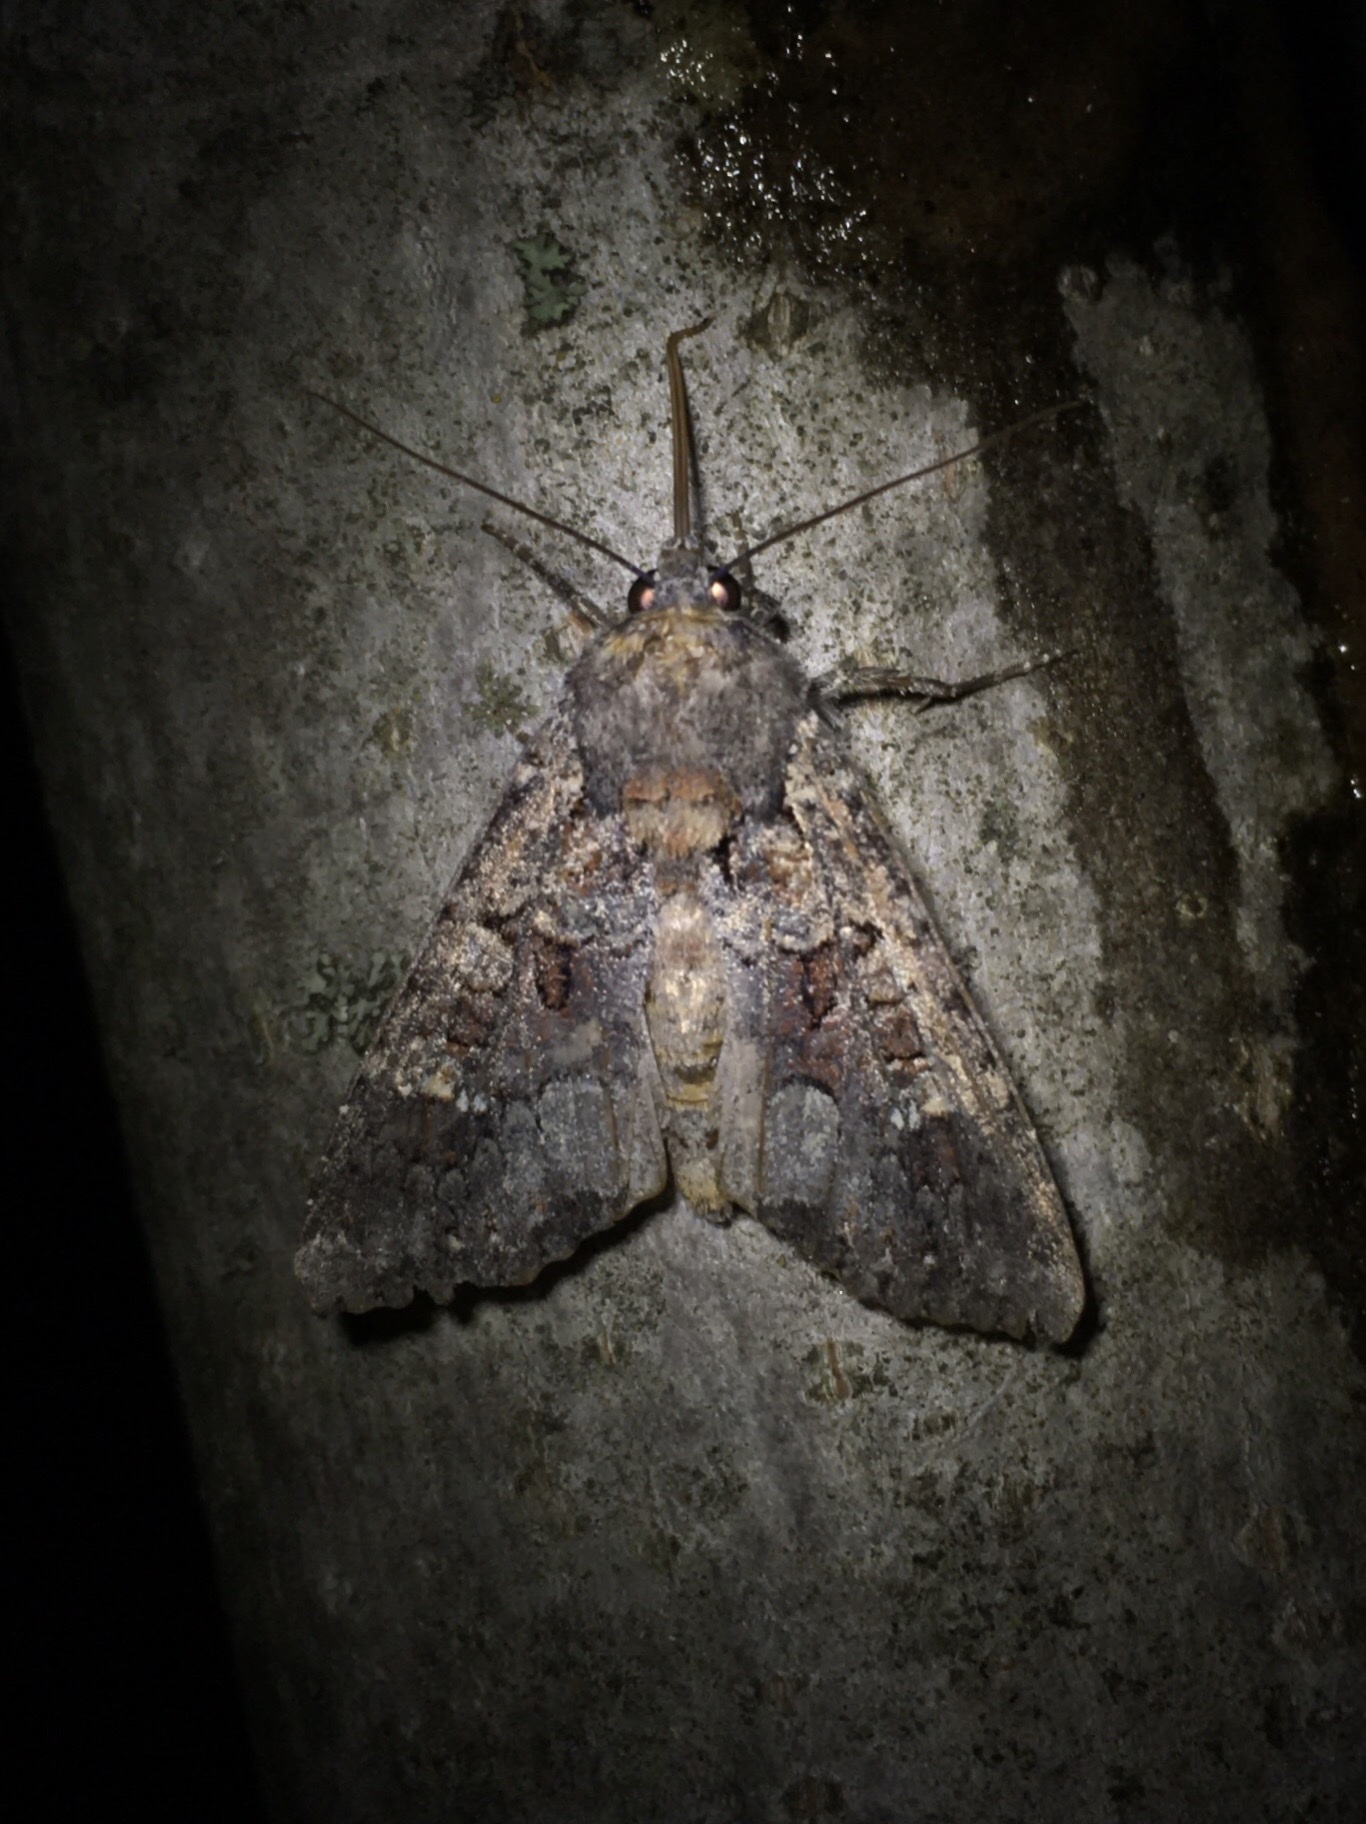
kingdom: Animalia
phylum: Arthropoda
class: Insecta
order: Lepidoptera
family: Noctuidae
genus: Apamea
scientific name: Apamea amputatrix
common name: Yellow-headed cutworm moth
